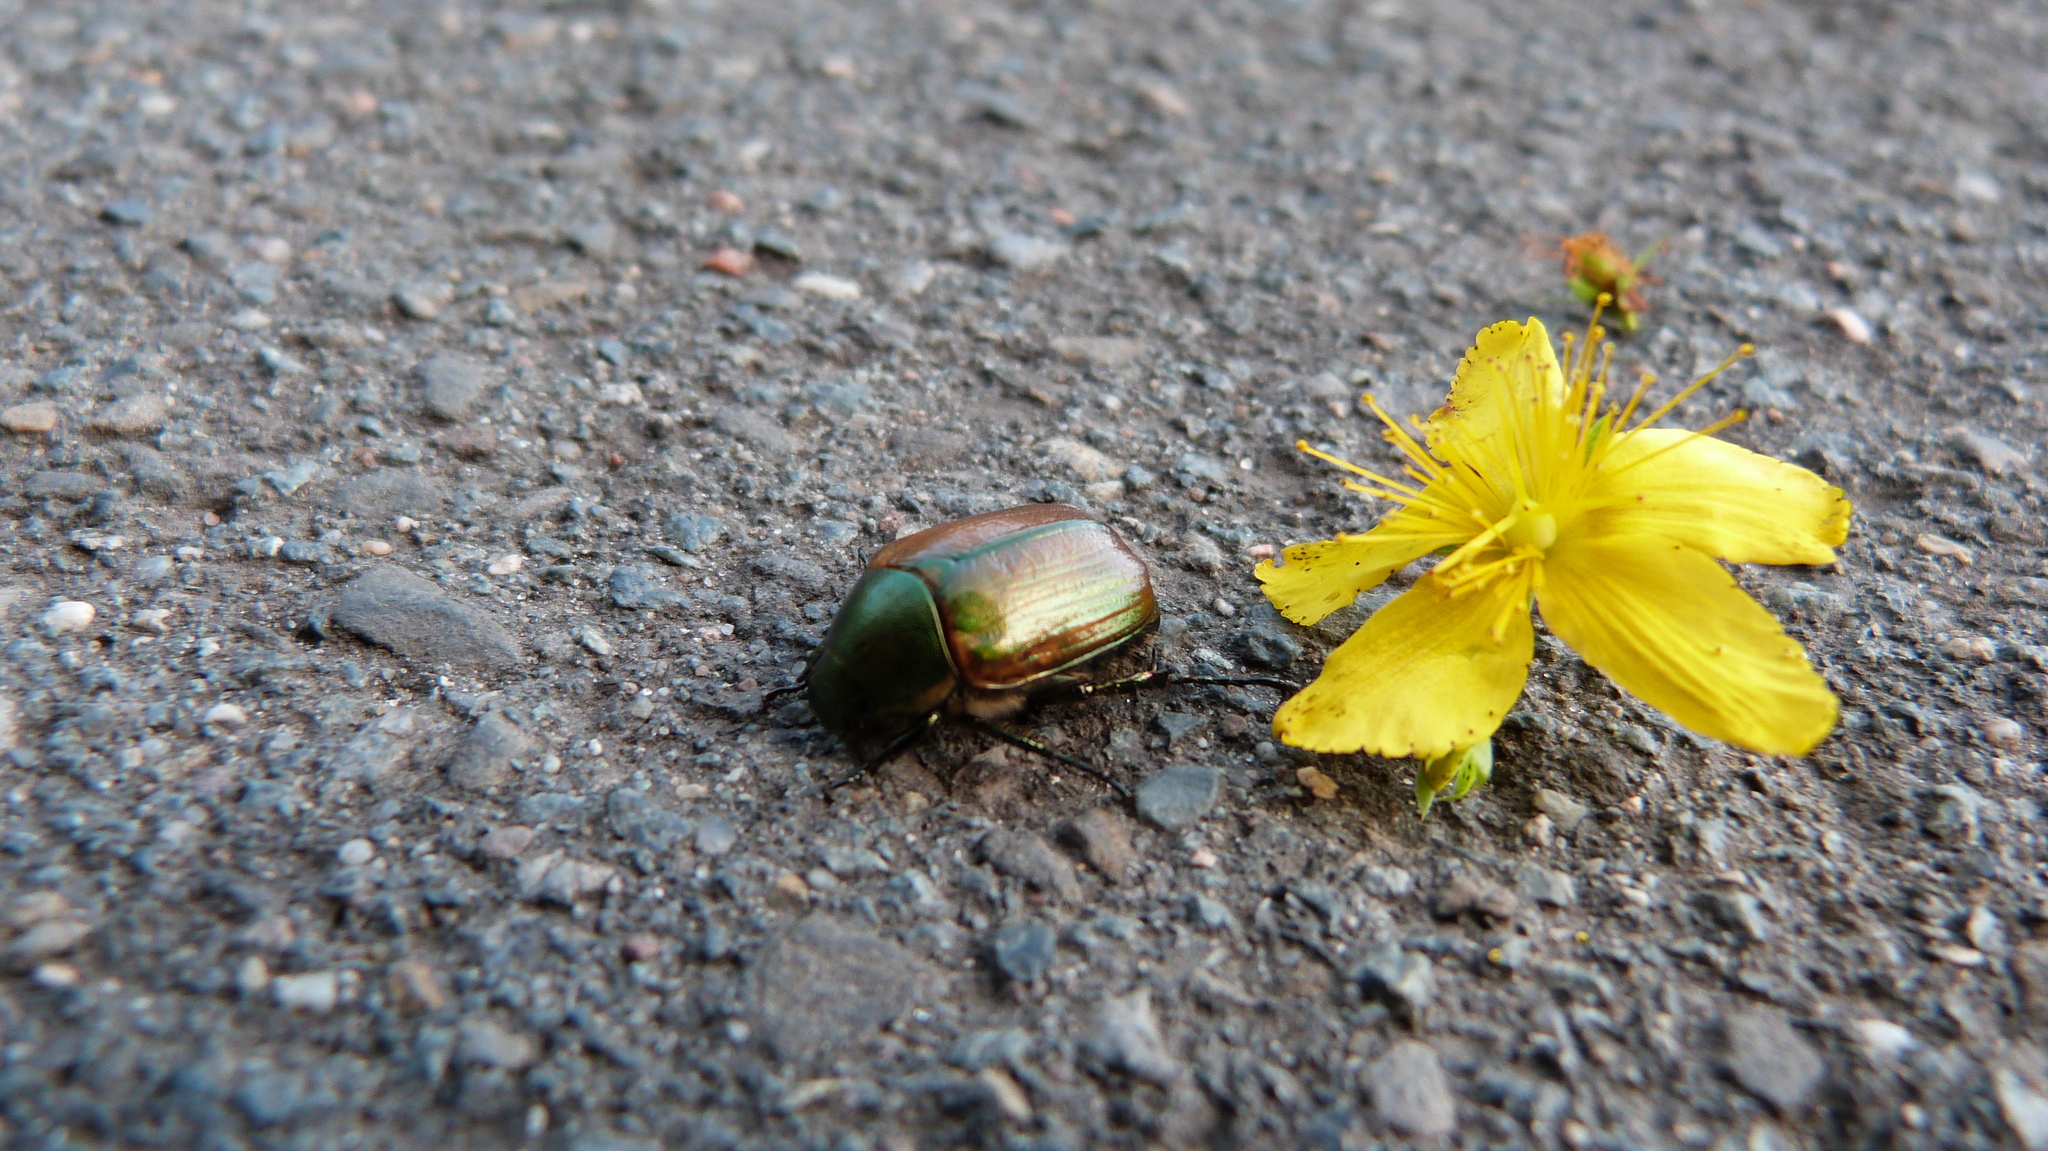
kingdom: Animalia
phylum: Arthropoda
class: Insecta
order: Coleoptera
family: Scarabaeidae
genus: Anomala
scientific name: Anomala dubia
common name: Dune chafer
